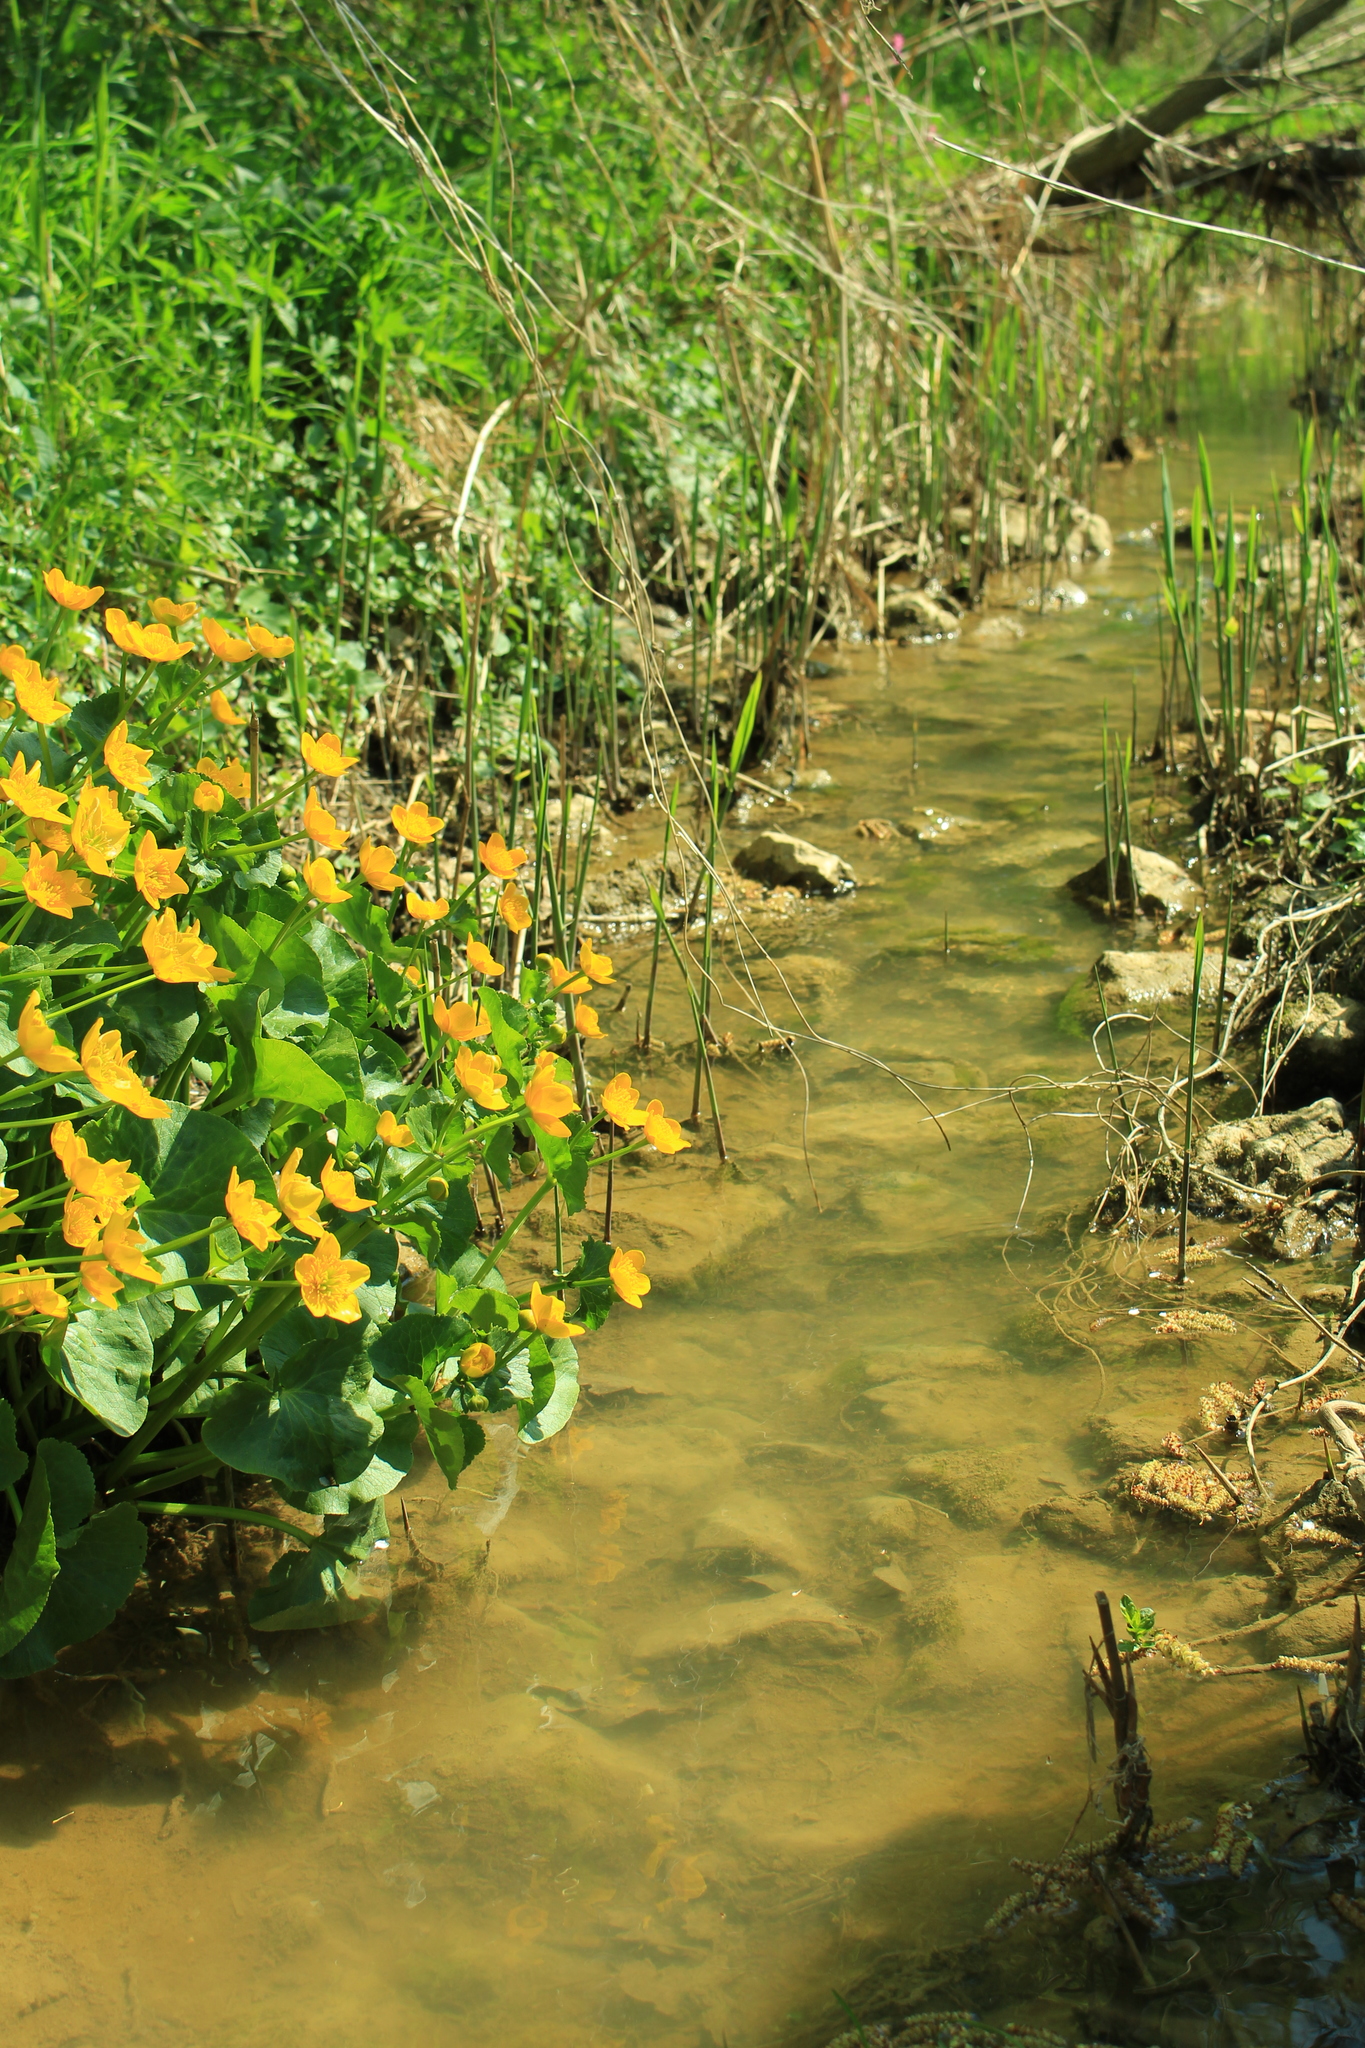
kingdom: Plantae
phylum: Tracheophyta
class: Magnoliopsida
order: Ranunculales
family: Ranunculaceae
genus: Caltha
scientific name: Caltha palustris
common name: Marsh marigold
